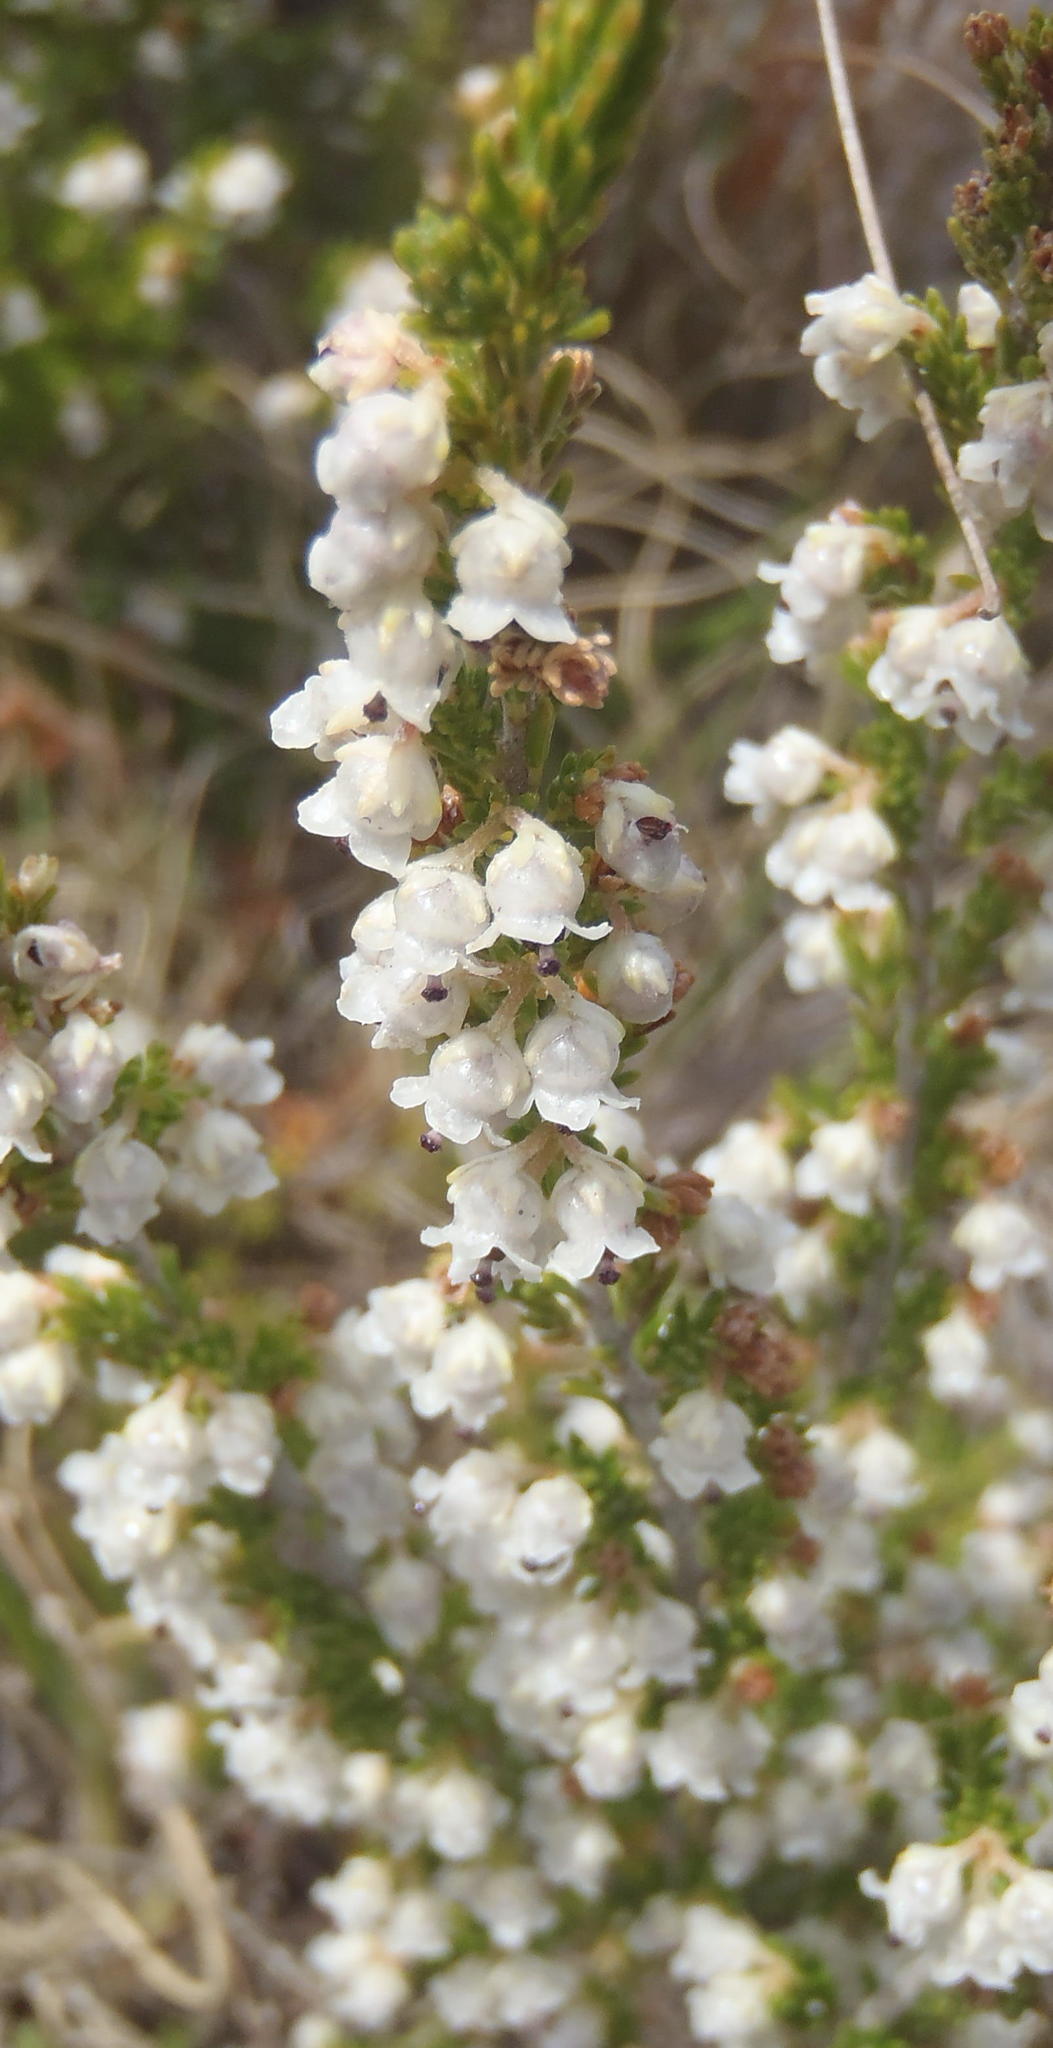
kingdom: Plantae
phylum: Tracheophyta
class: Magnoliopsida
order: Ericales
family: Ericaceae
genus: Erica
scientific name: Erica zwartbergensis
